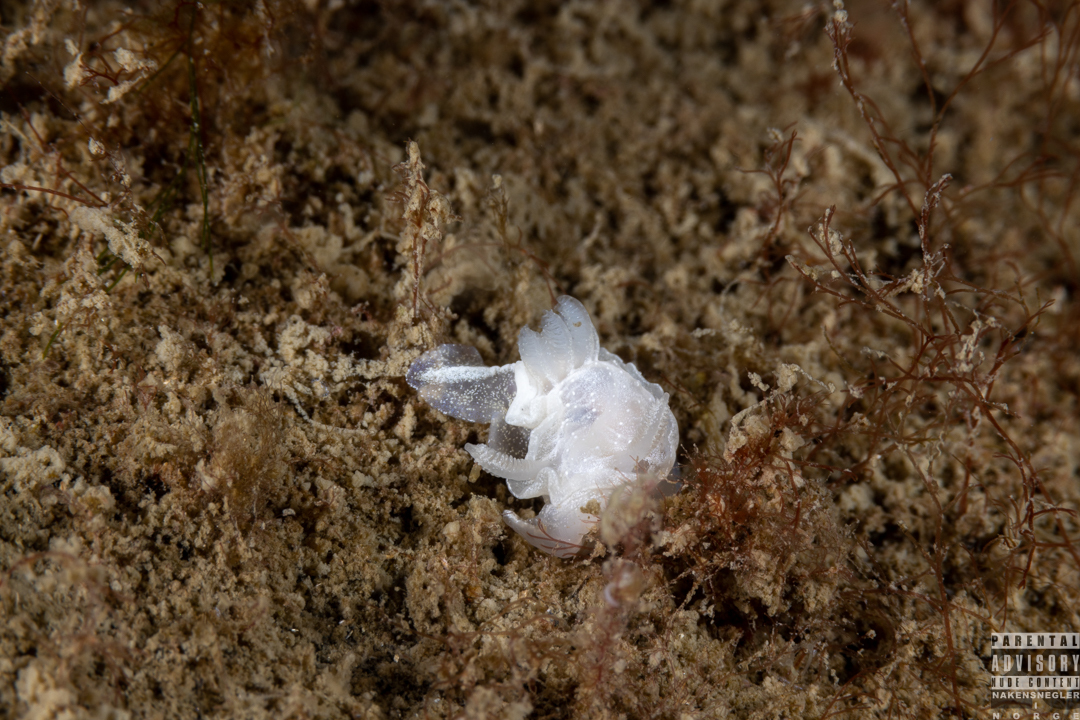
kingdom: Animalia
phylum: Mollusca
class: Gastropoda
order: Nudibranchia
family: Goniodorididae
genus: Okenia
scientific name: Okenia
